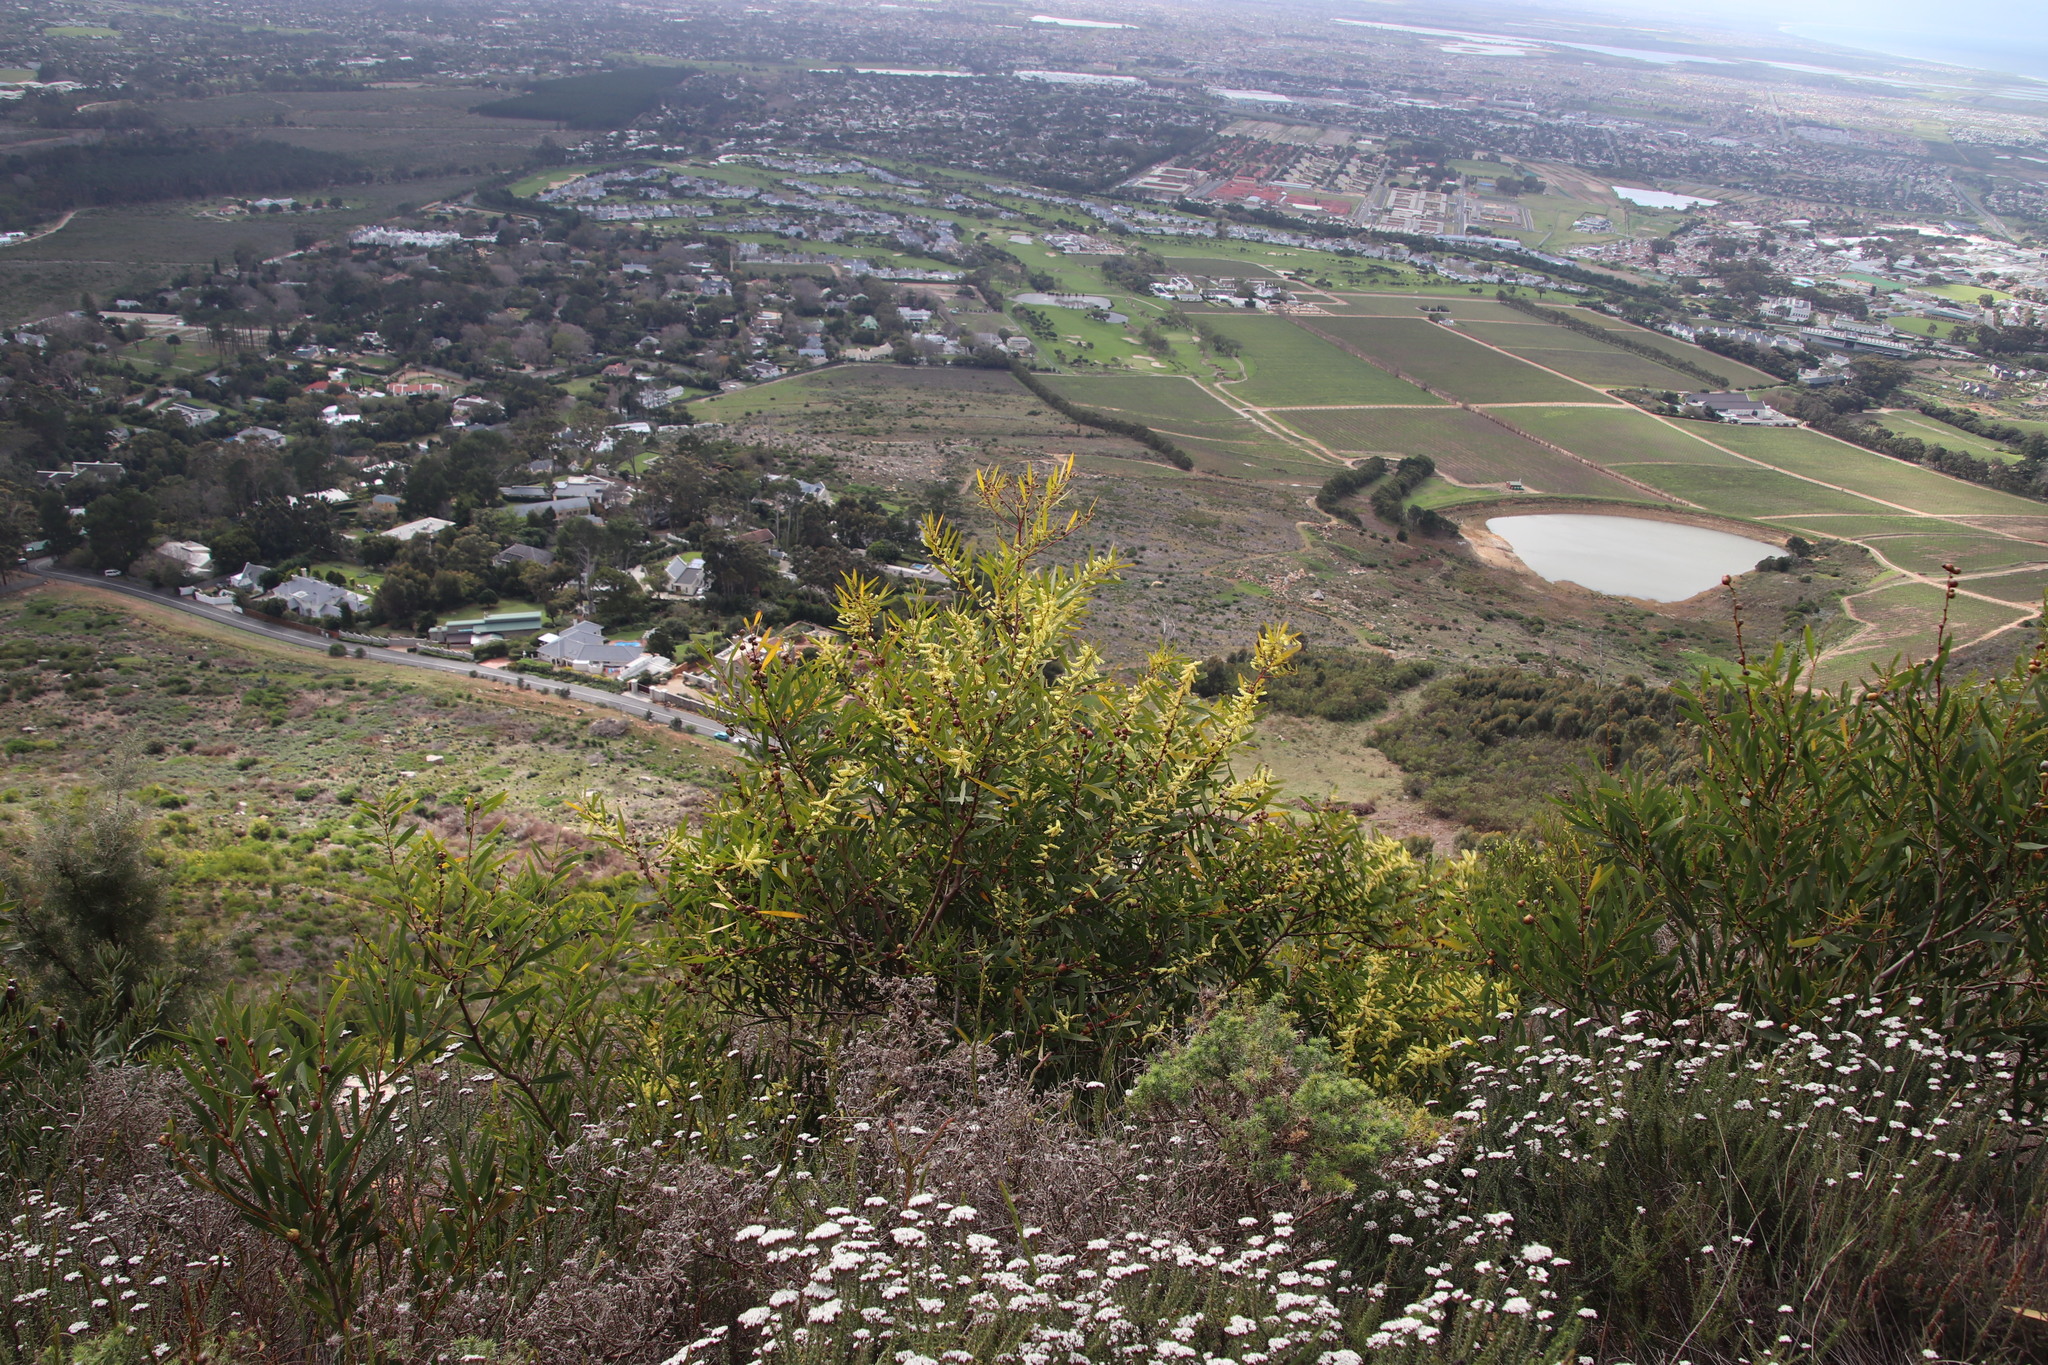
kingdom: Plantae
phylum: Tracheophyta
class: Magnoliopsida
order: Fabales
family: Fabaceae
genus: Acacia
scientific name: Acacia longifolia
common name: Sydney golden wattle
